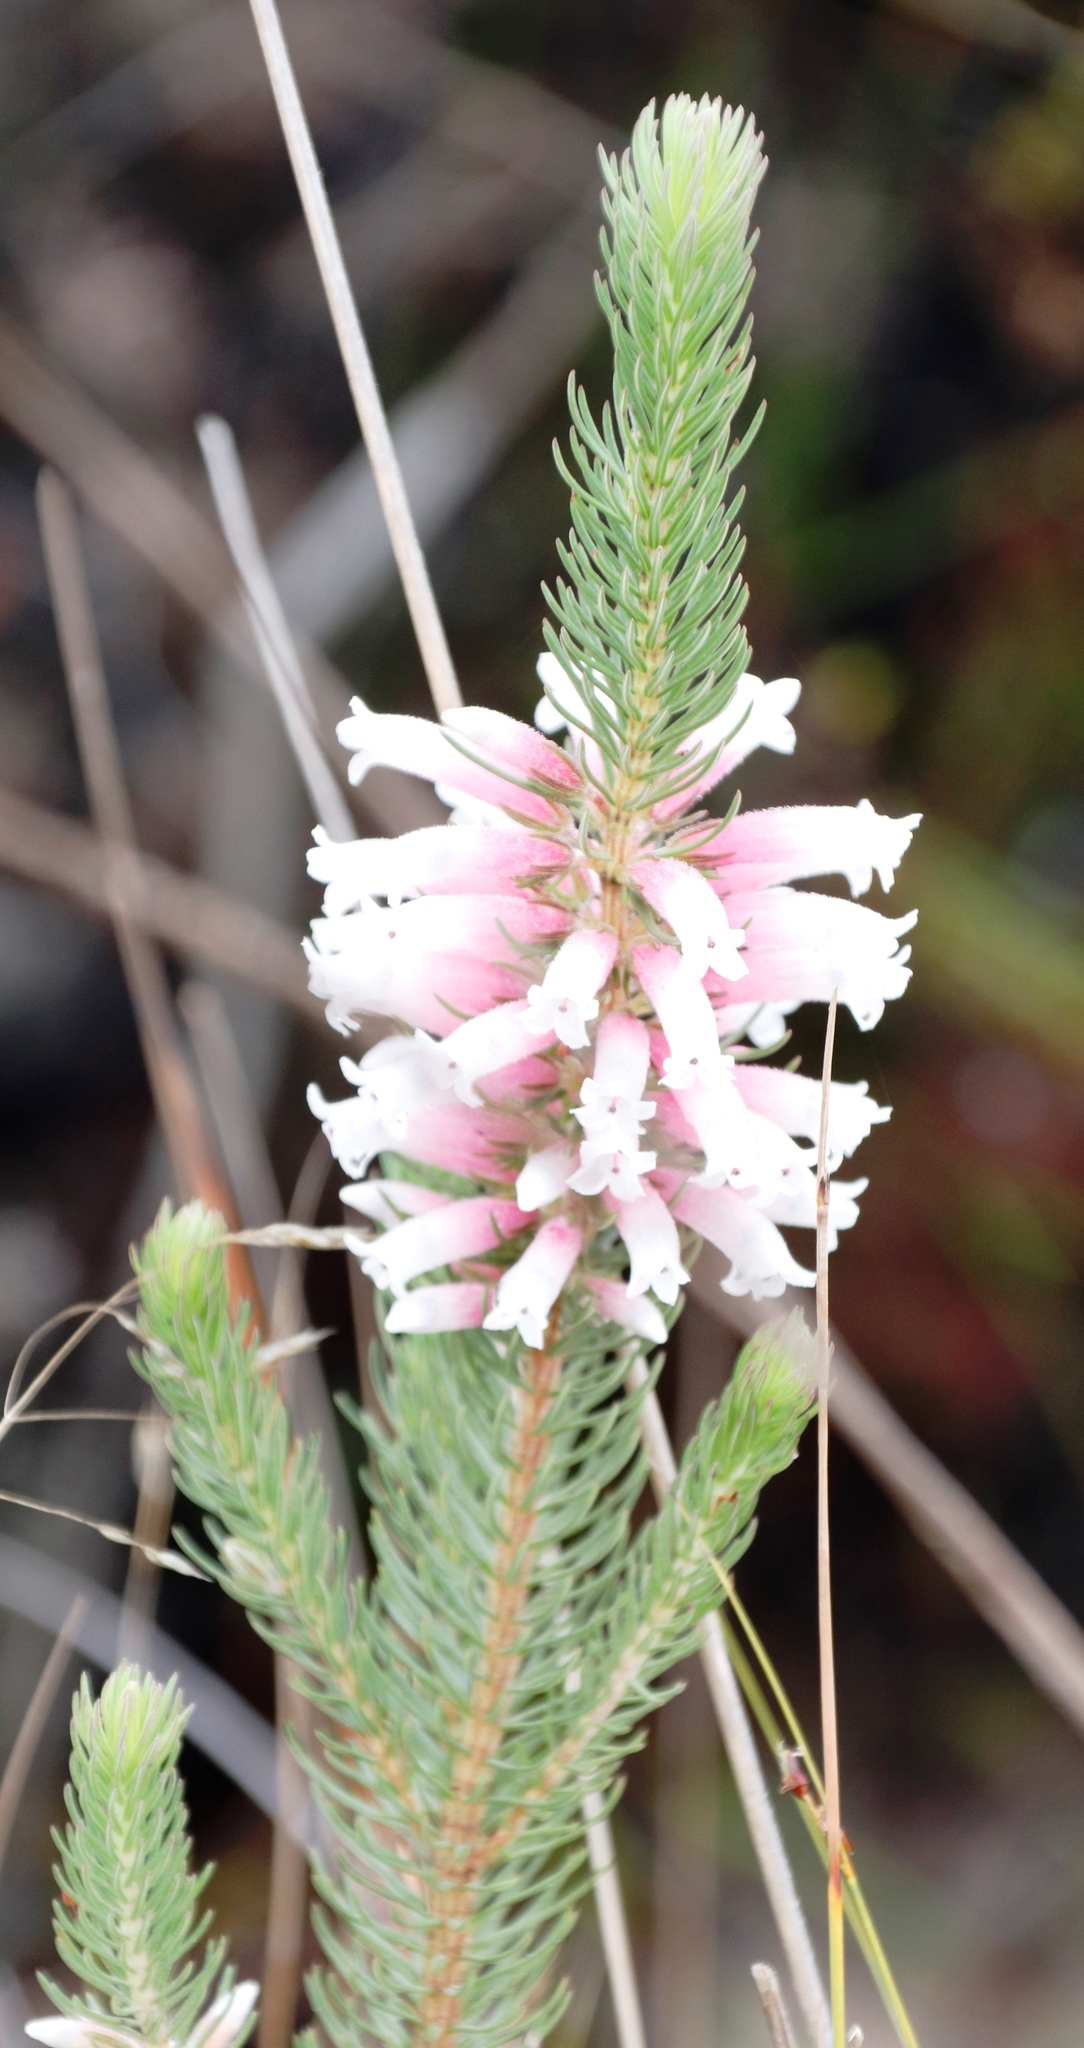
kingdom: Plantae
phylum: Tracheophyta
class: Magnoliopsida
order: Ericales
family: Ericaceae
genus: Erica
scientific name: Erica viscaria
